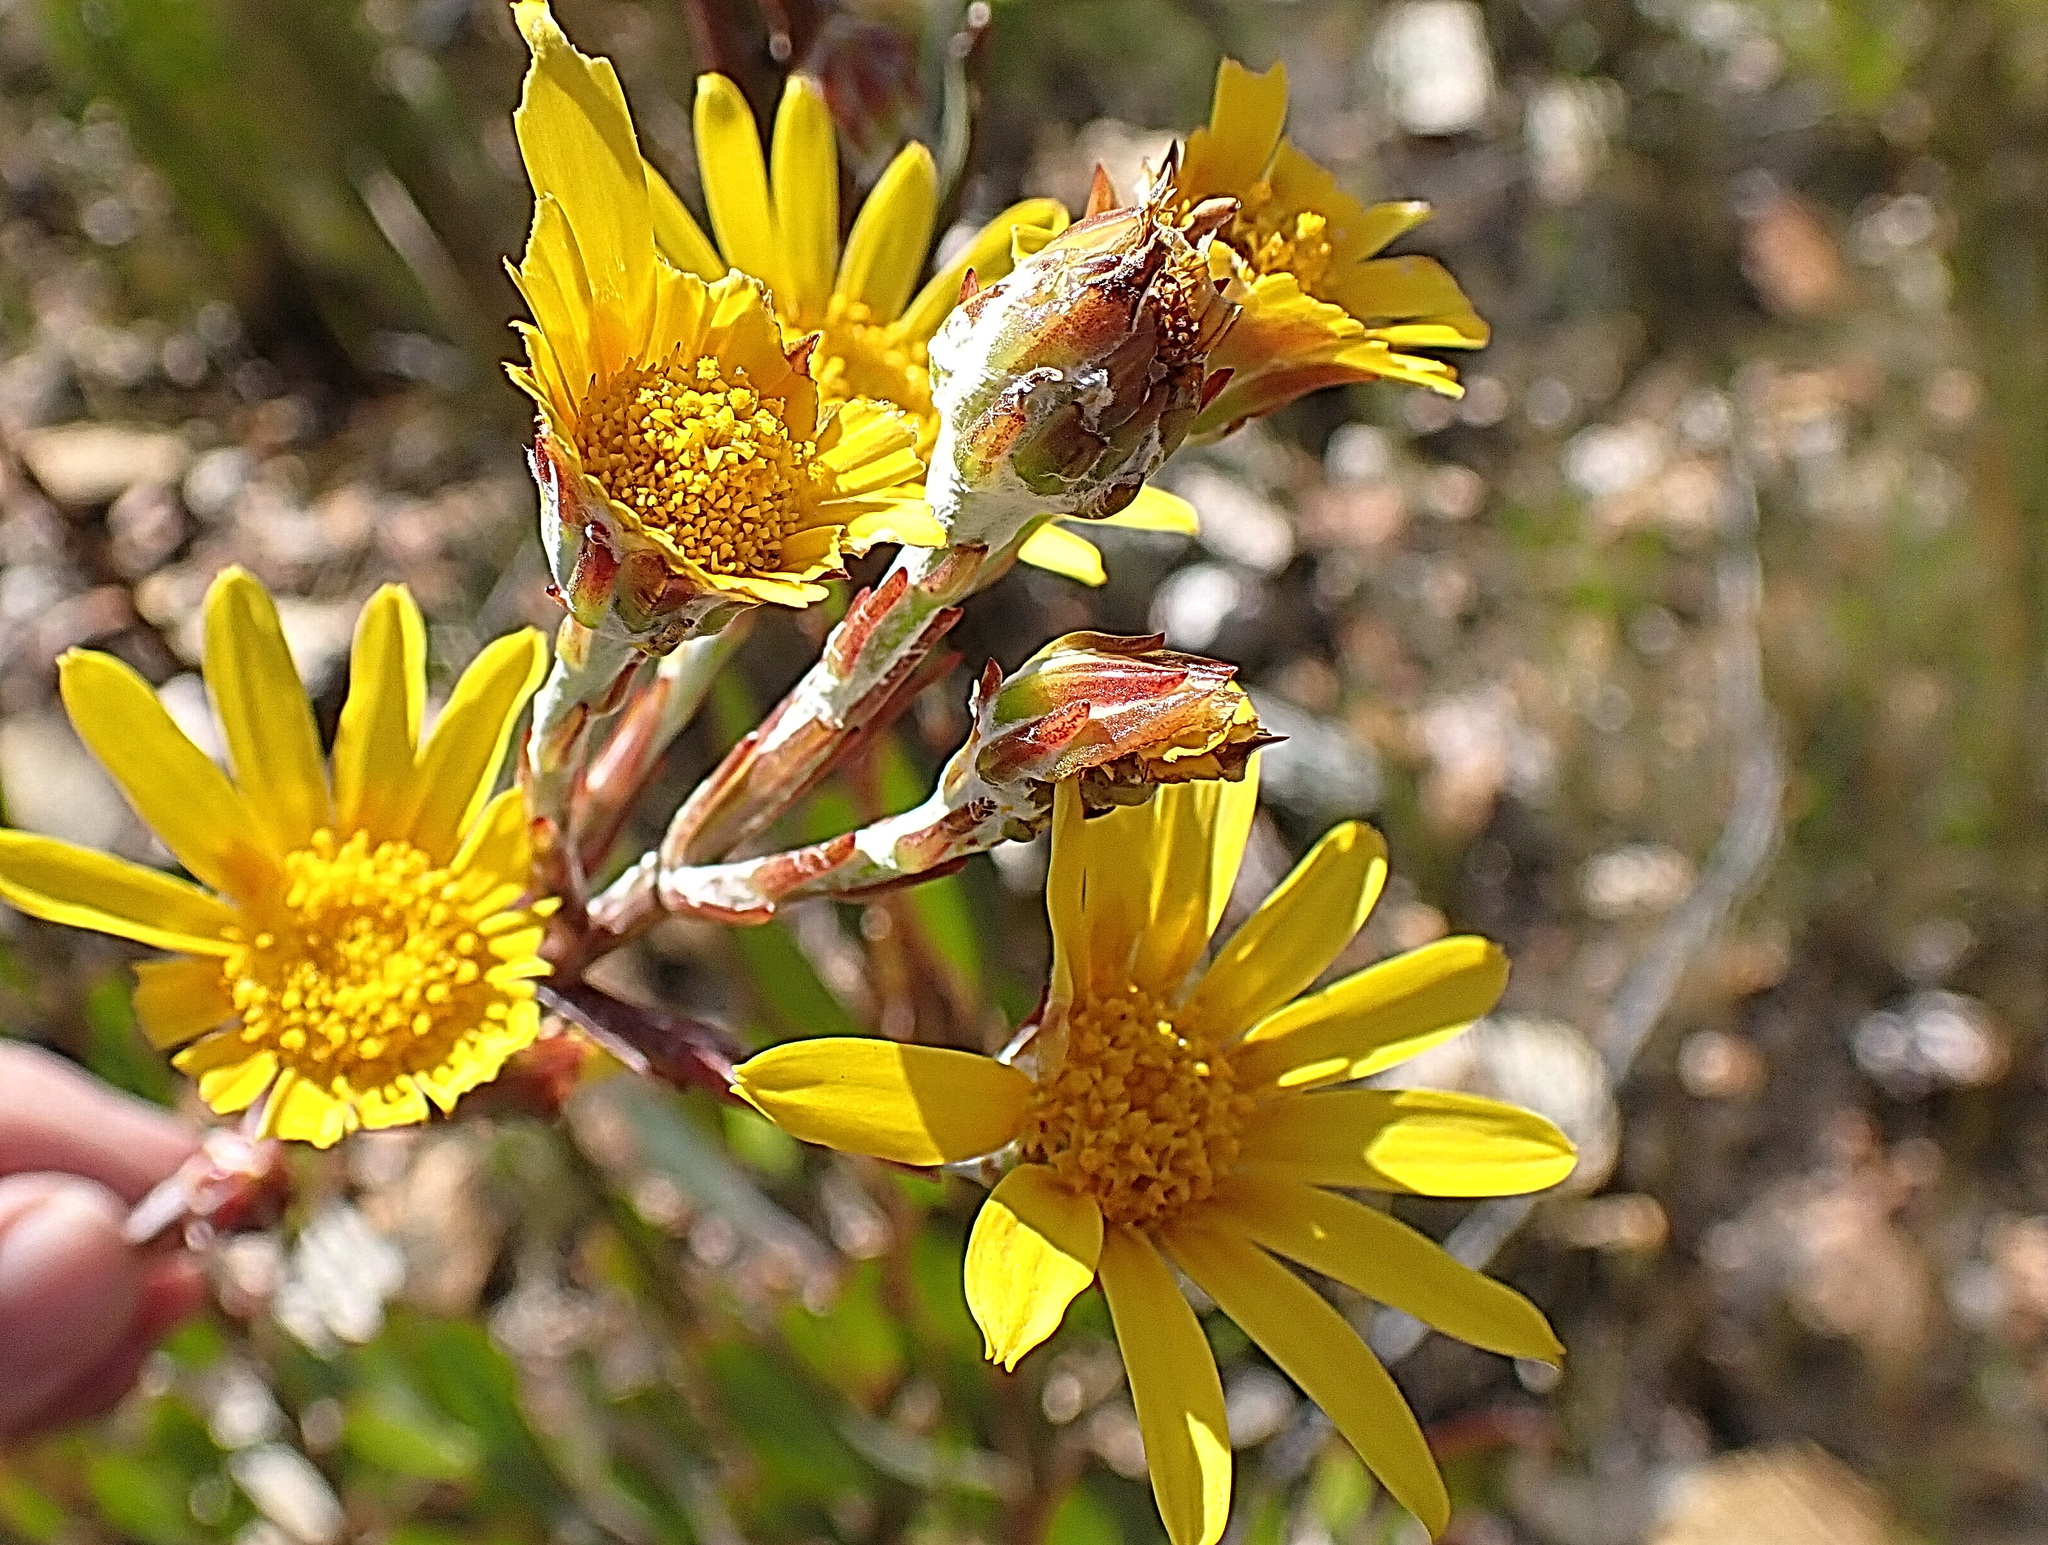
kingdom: Plantae
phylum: Tracheophyta
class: Magnoliopsida
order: Asterales
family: Asteraceae
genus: Osteospermum
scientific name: Osteospermum junceum
